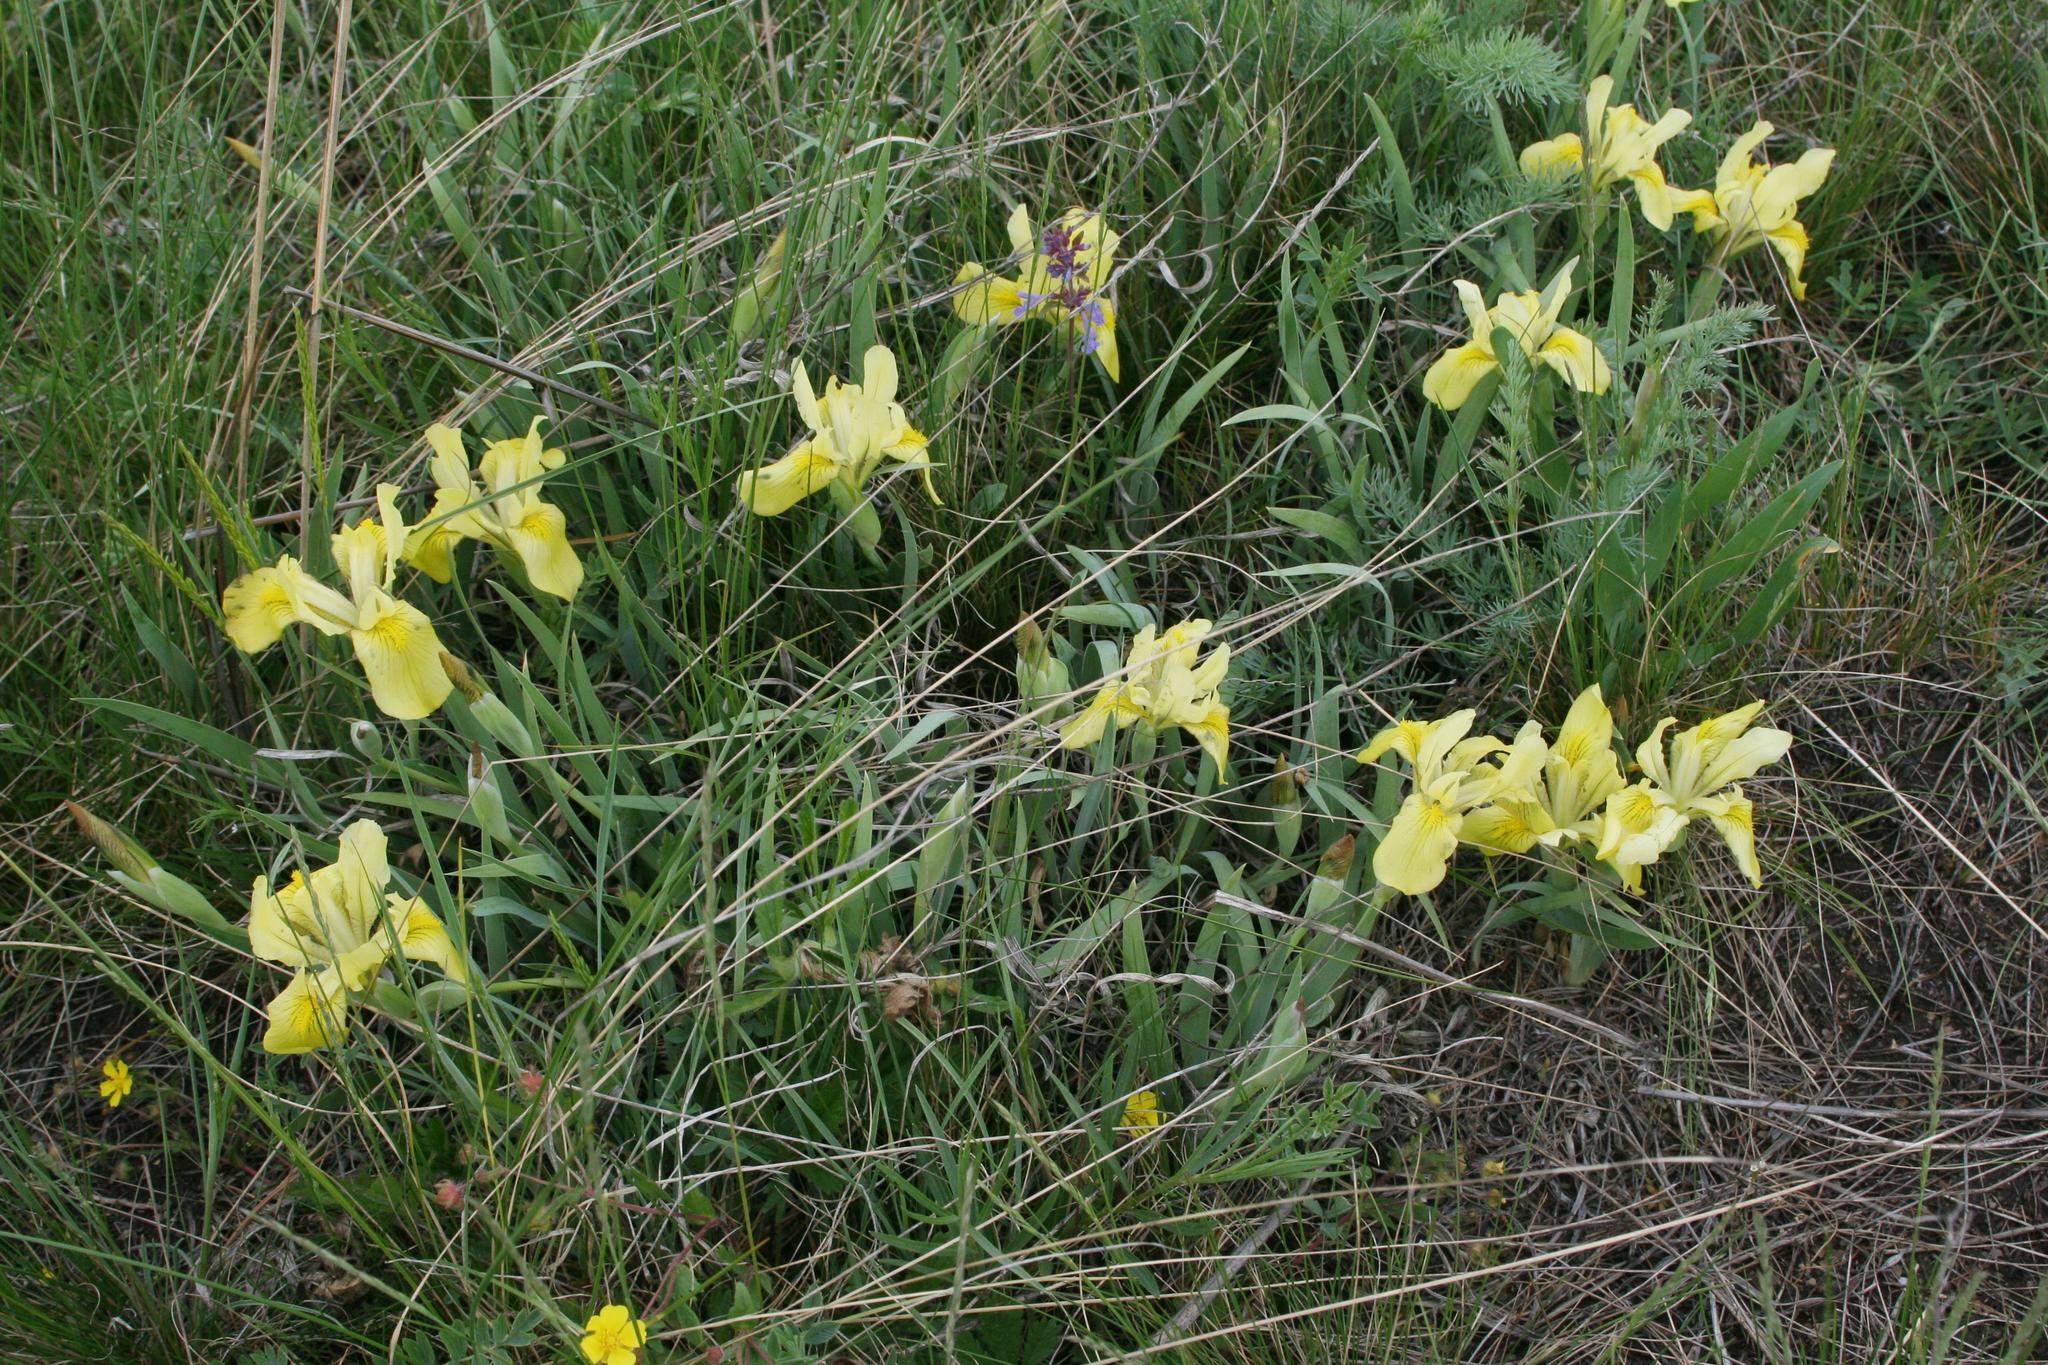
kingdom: Plantae
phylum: Tracheophyta
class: Liliopsida
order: Asparagales
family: Iridaceae
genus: Iris
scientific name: Iris humilis
